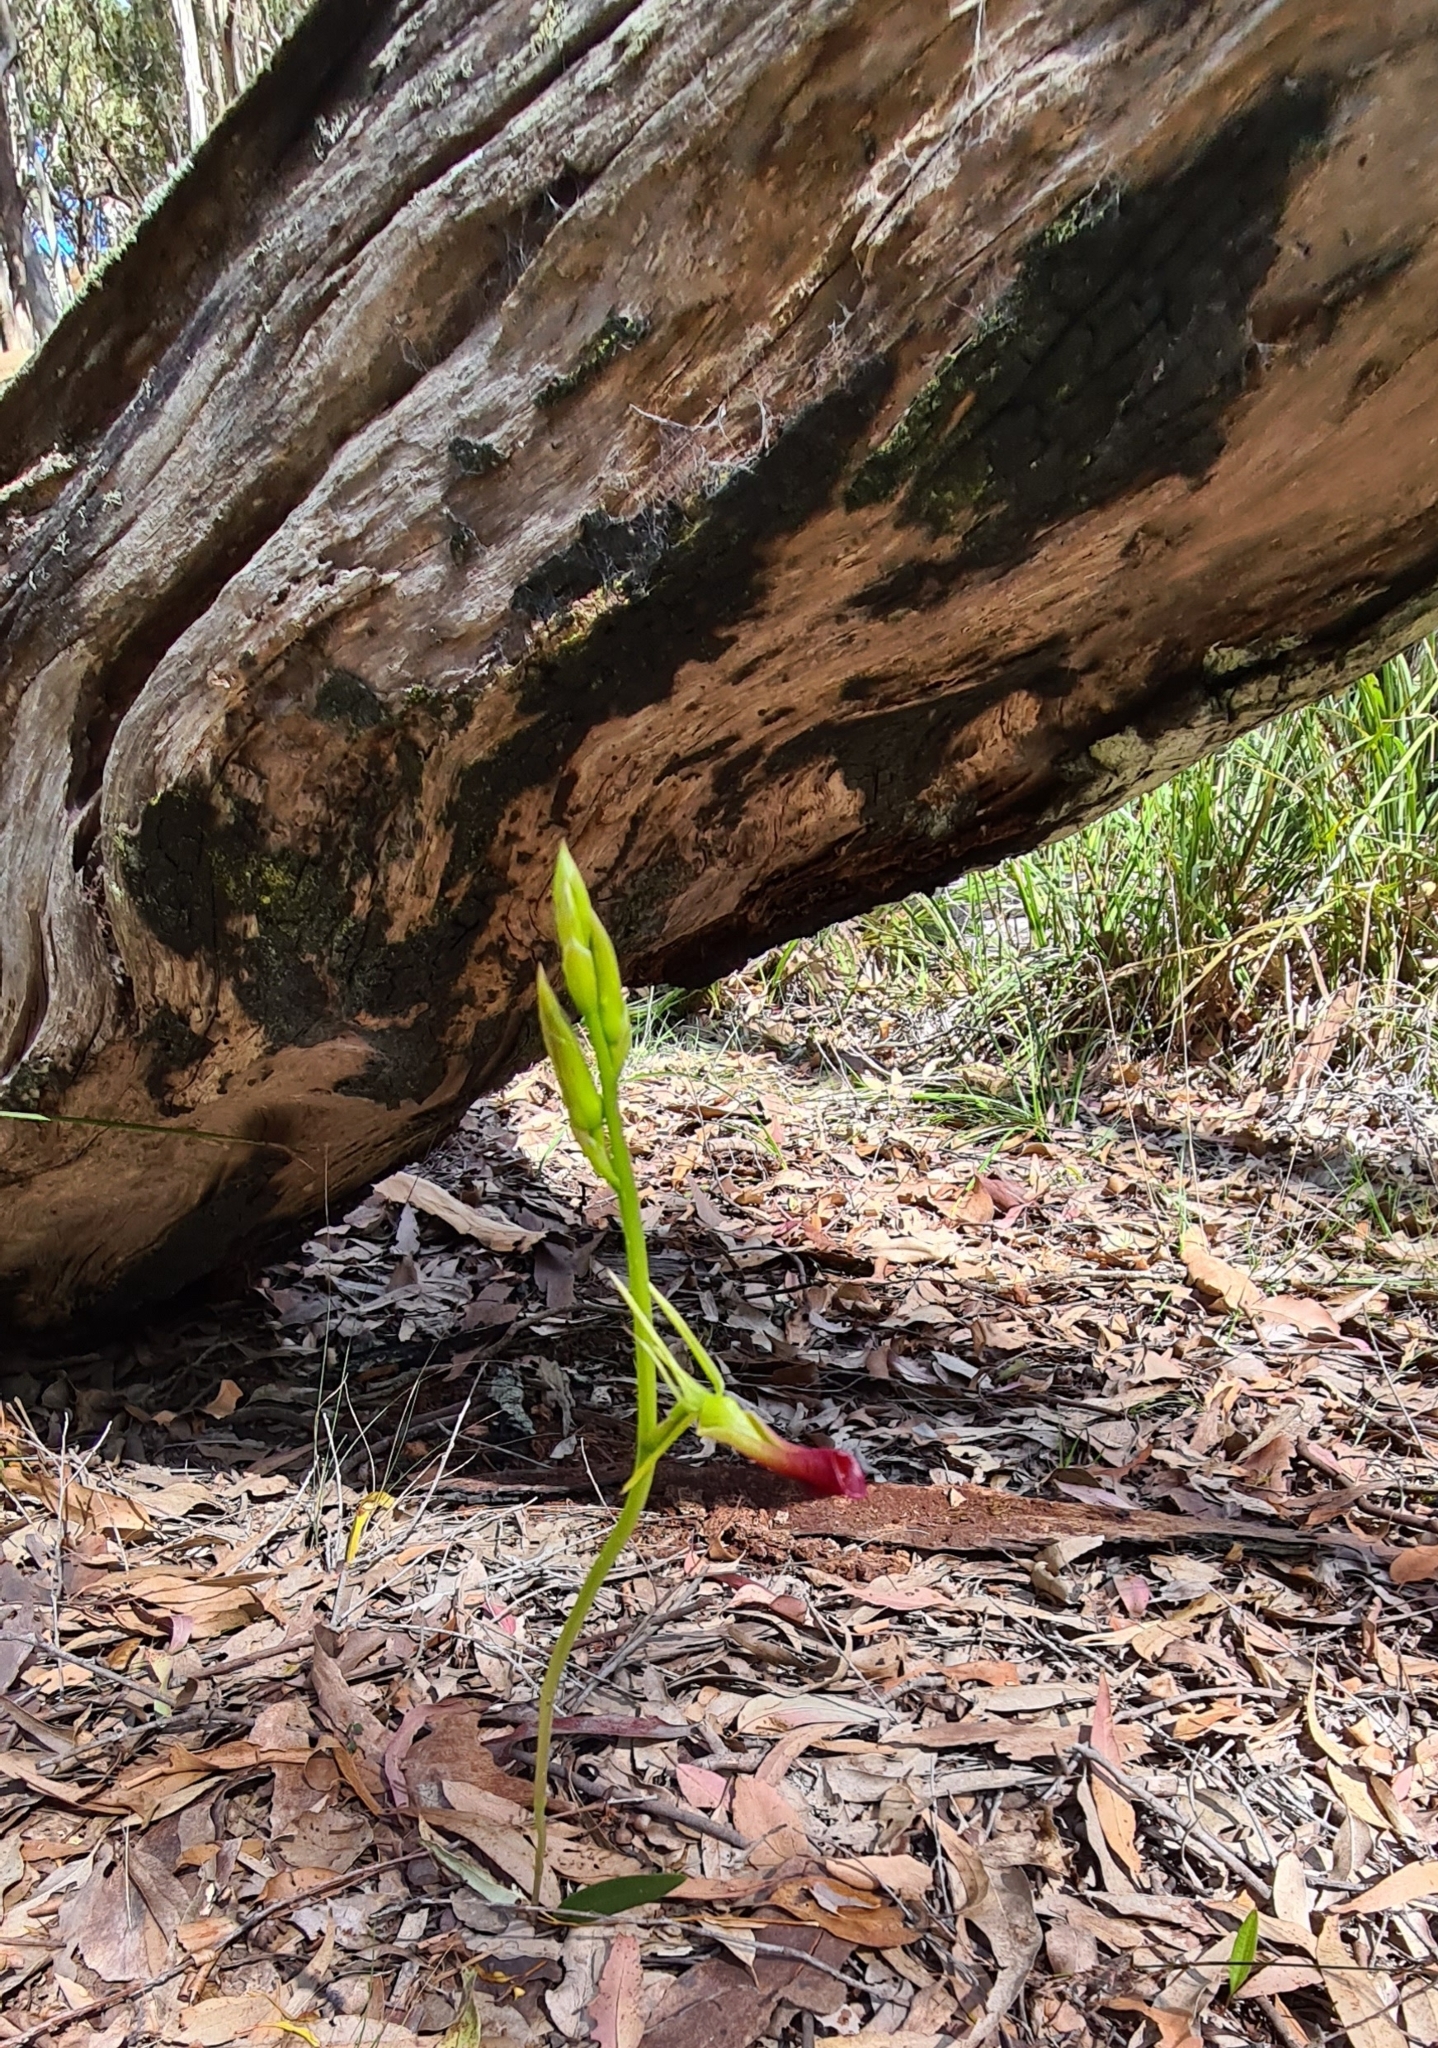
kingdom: Plantae
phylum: Tracheophyta
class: Liliopsida
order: Asparagales
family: Orchidaceae
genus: Cryptostylis
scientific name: Cryptostylis subulata
